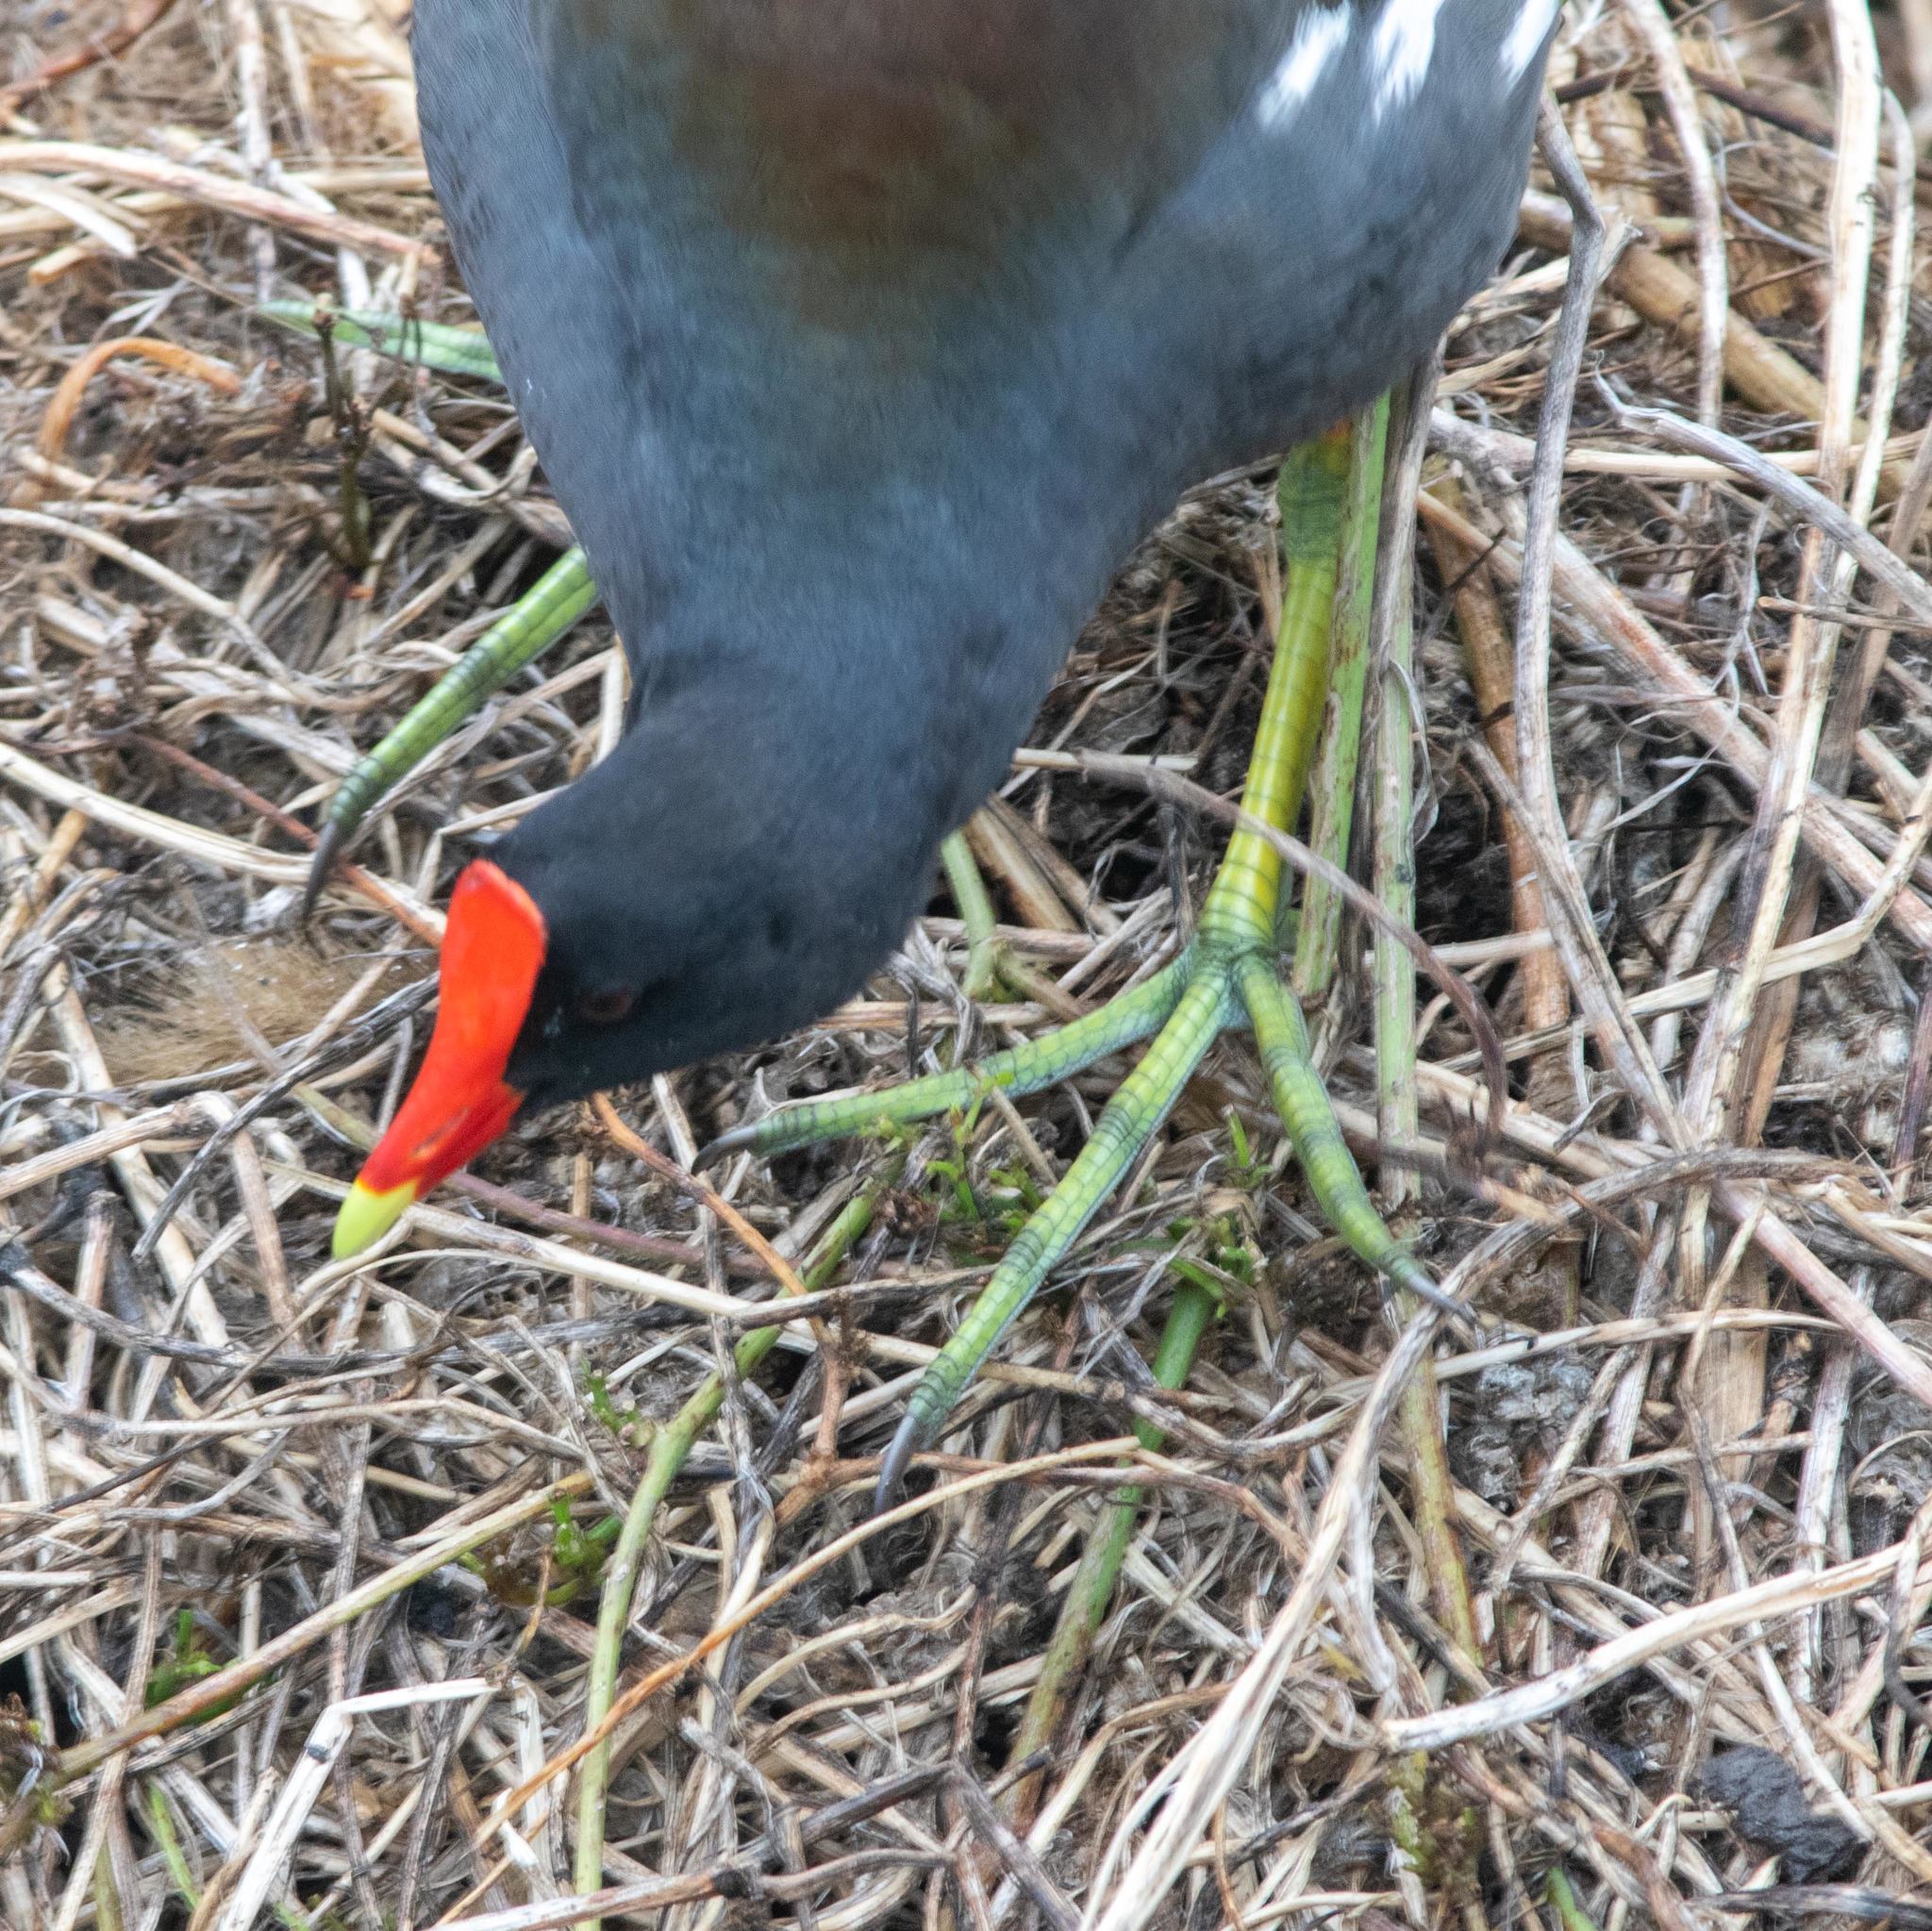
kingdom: Animalia
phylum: Chordata
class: Aves
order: Gruiformes
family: Rallidae
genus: Gallinula
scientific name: Gallinula chloropus
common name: Common moorhen
